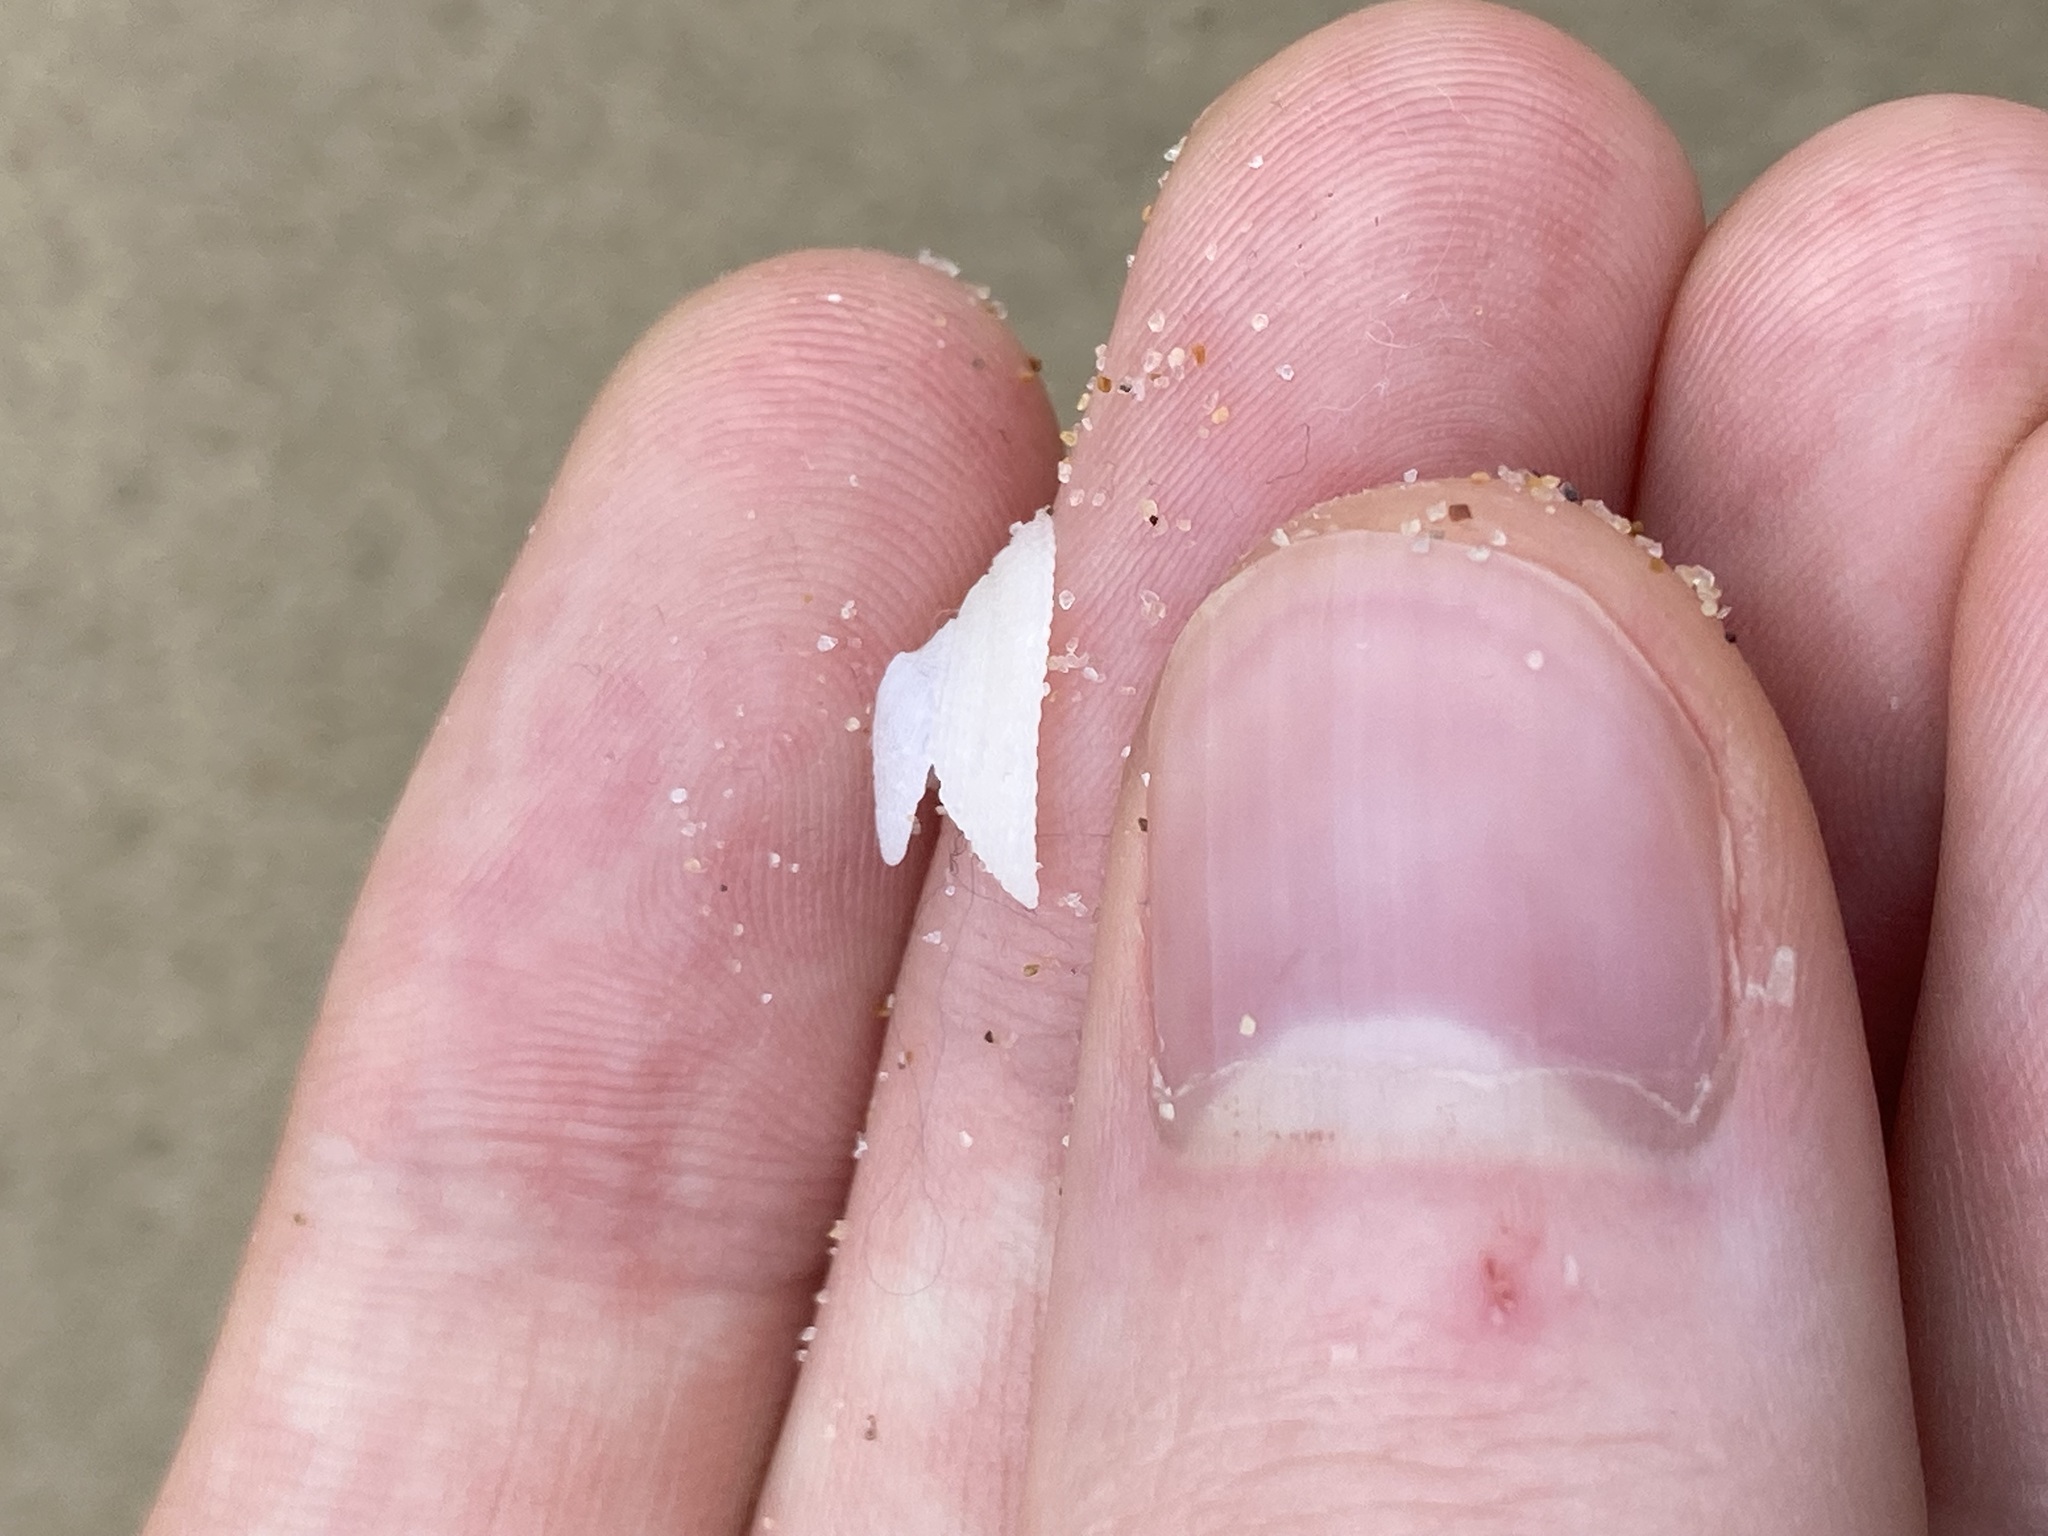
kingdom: Animalia
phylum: Mollusca
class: Gastropoda
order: Lepetellida
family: Fissurellidae
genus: Tugali
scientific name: Tugali parmophoidea
